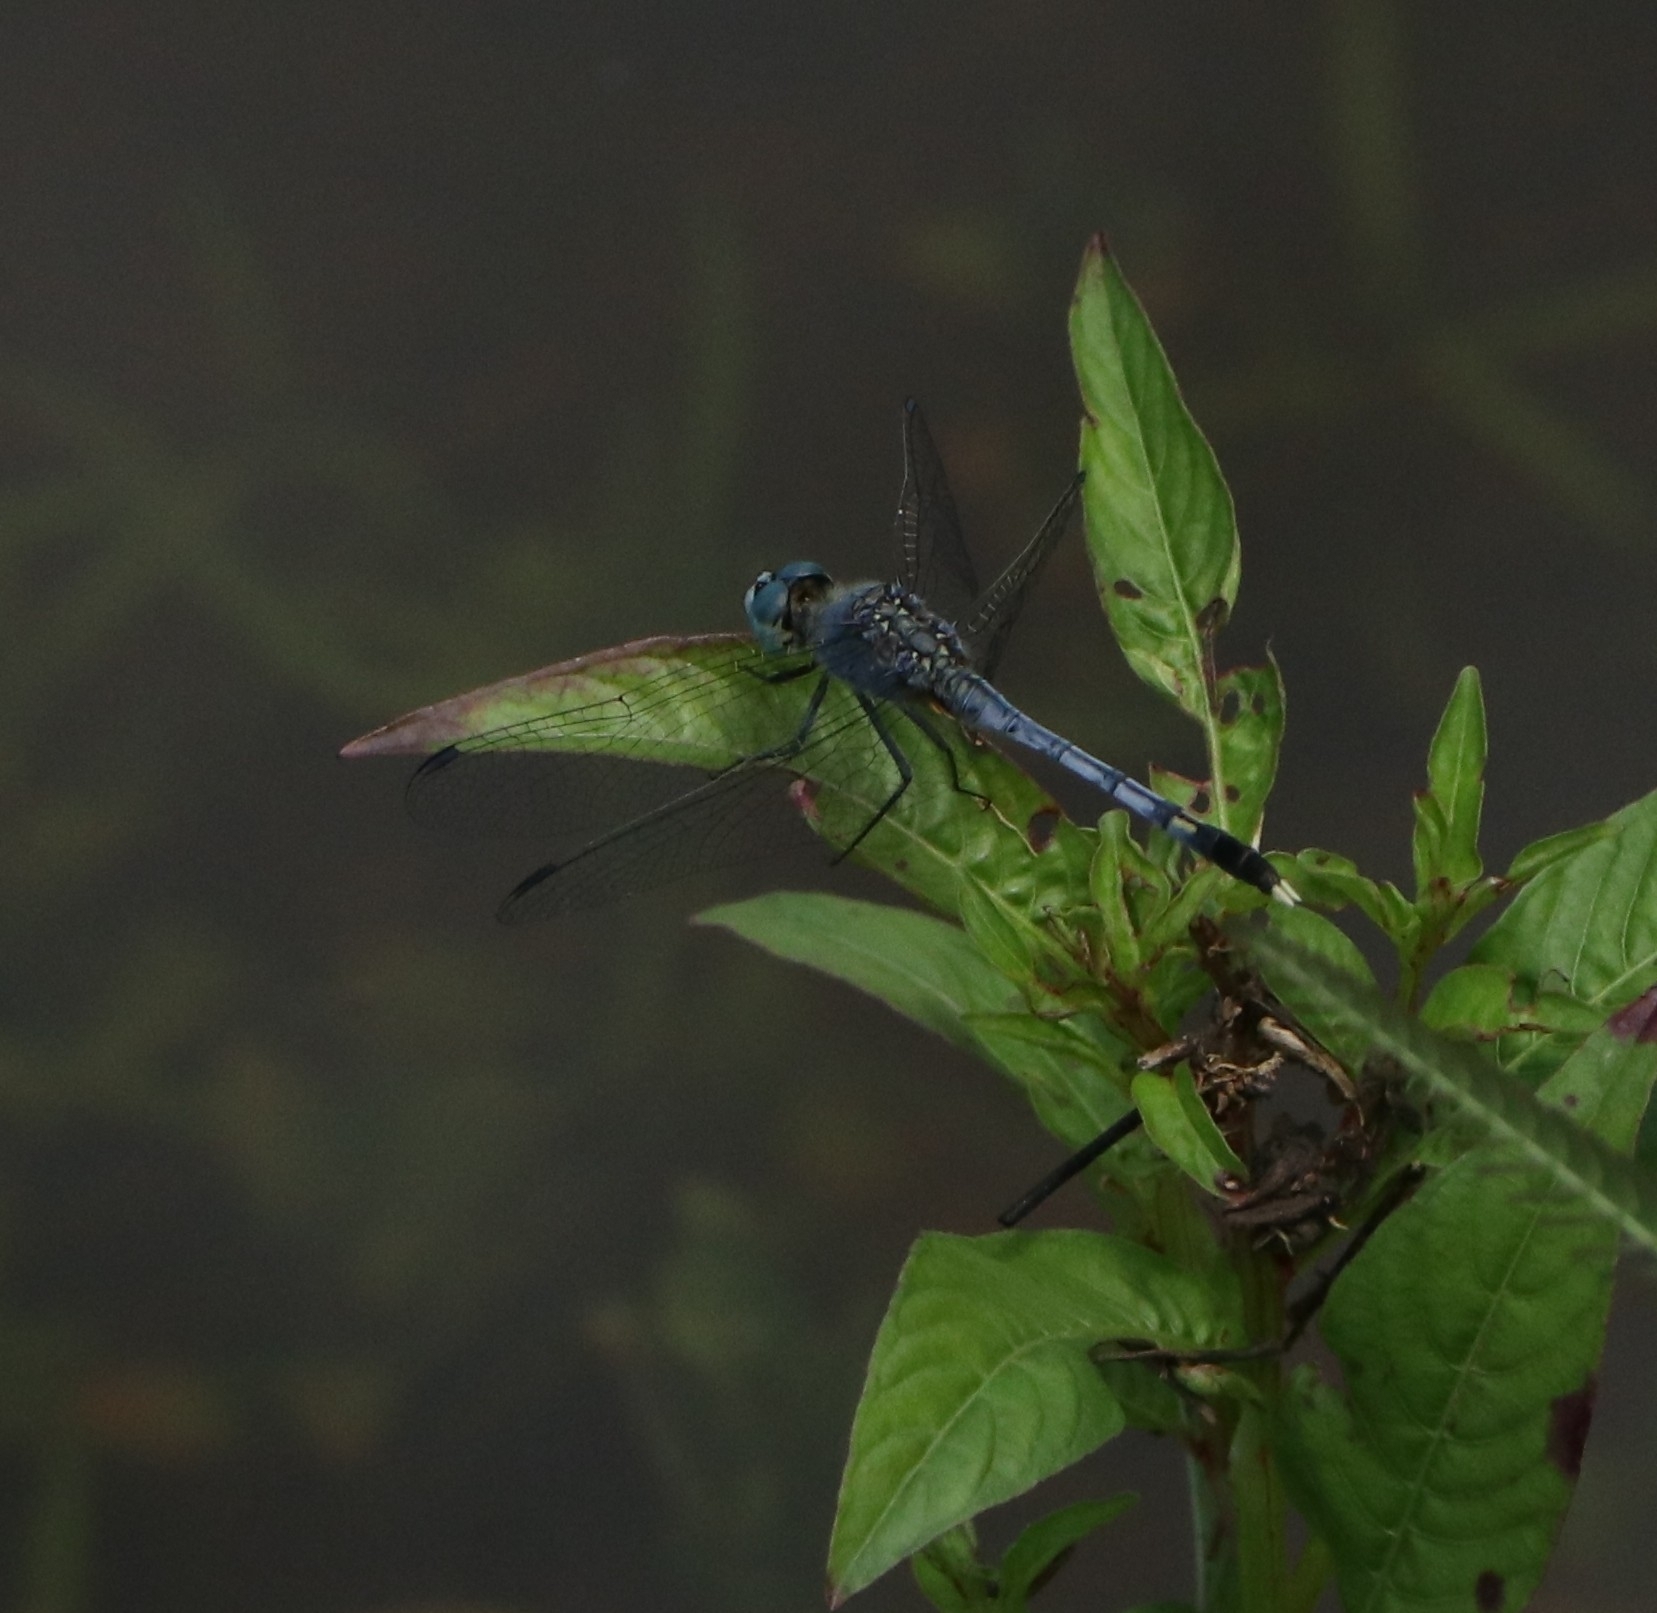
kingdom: Animalia
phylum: Arthropoda
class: Insecta
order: Odonata
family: Libellulidae
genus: Diplacodes
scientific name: Diplacodes trivialis
